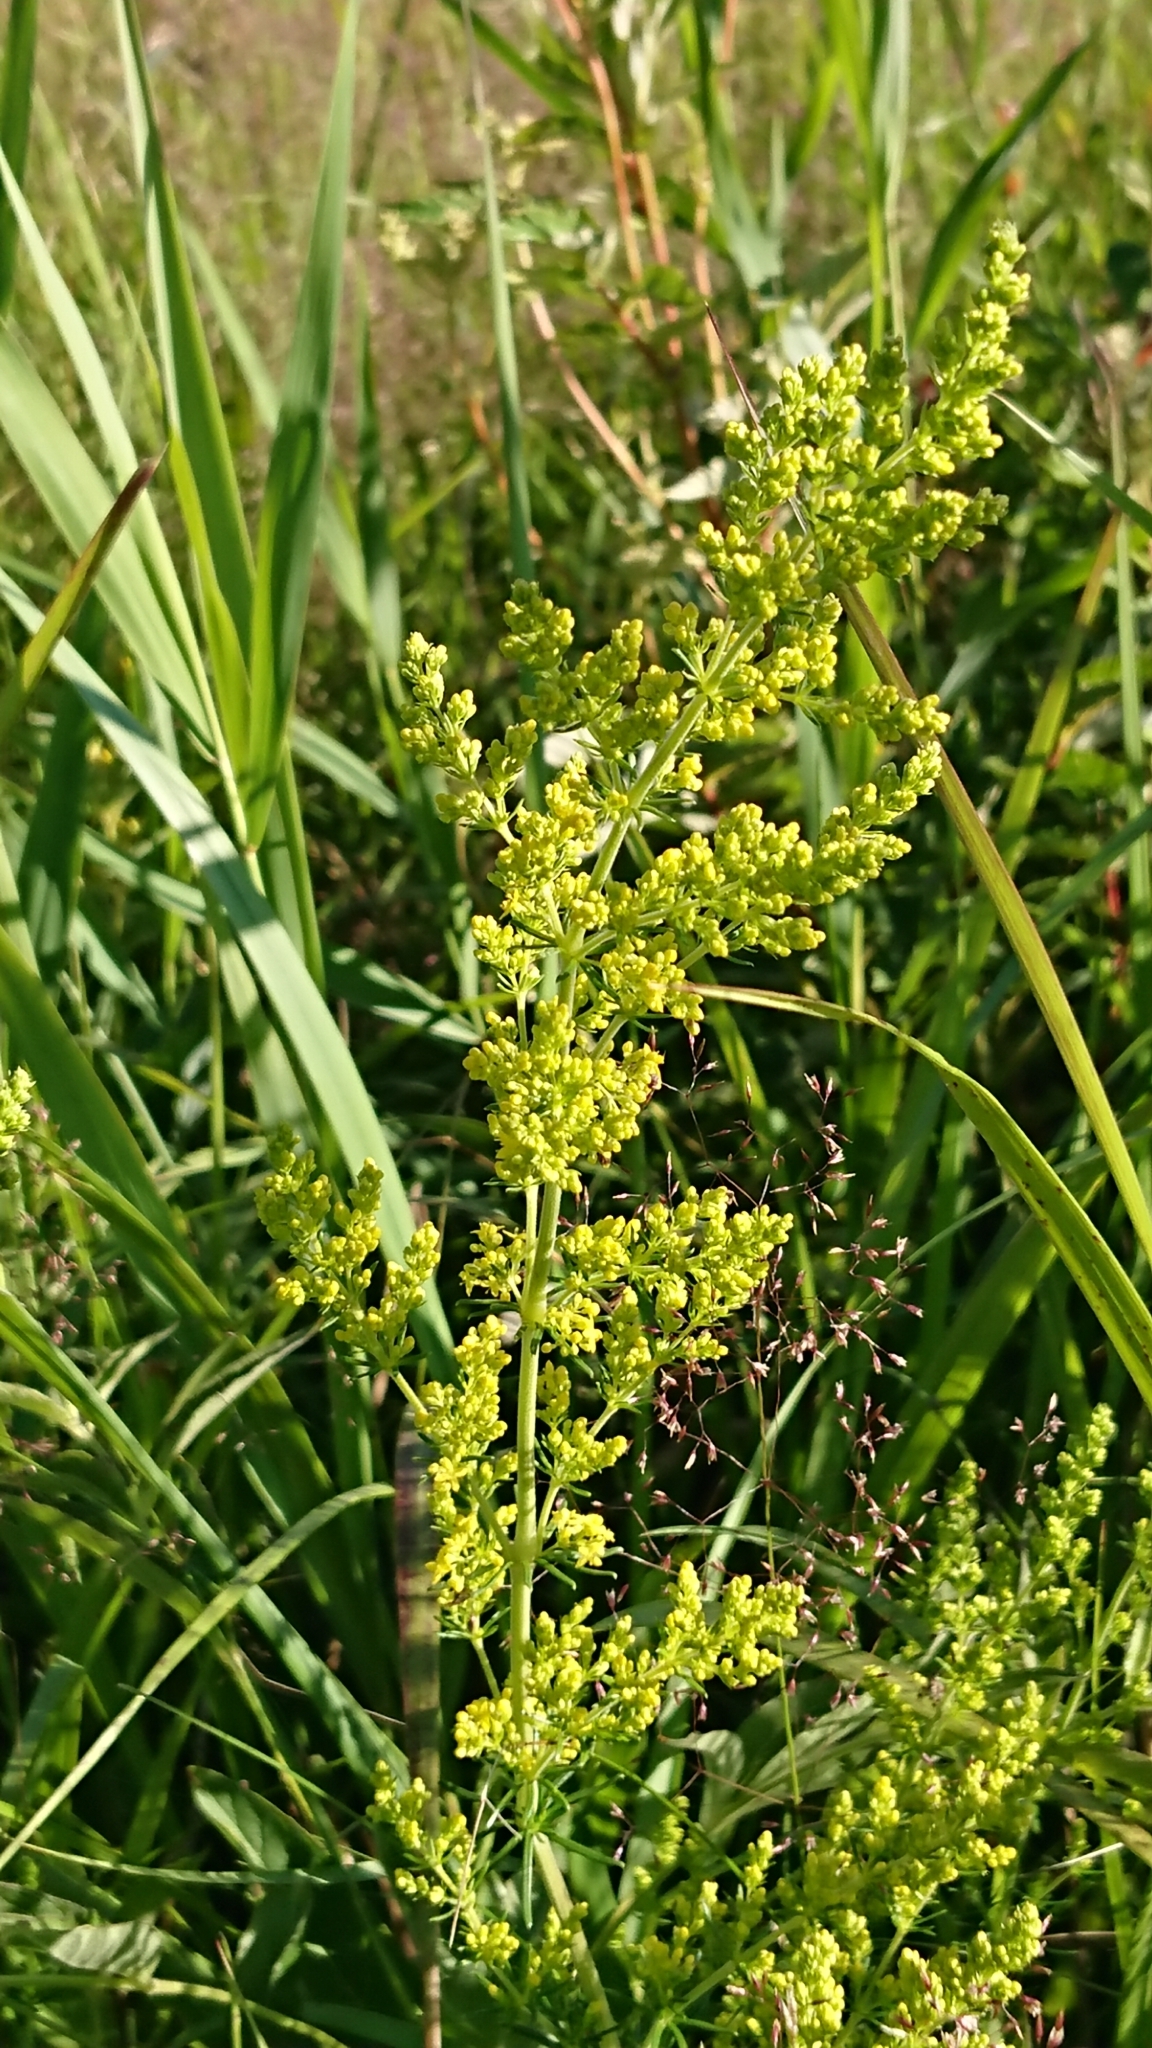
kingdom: Plantae
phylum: Tracheophyta
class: Magnoliopsida
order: Gentianales
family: Rubiaceae
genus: Galium
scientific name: Galium verum
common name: Lady's bedstraw
